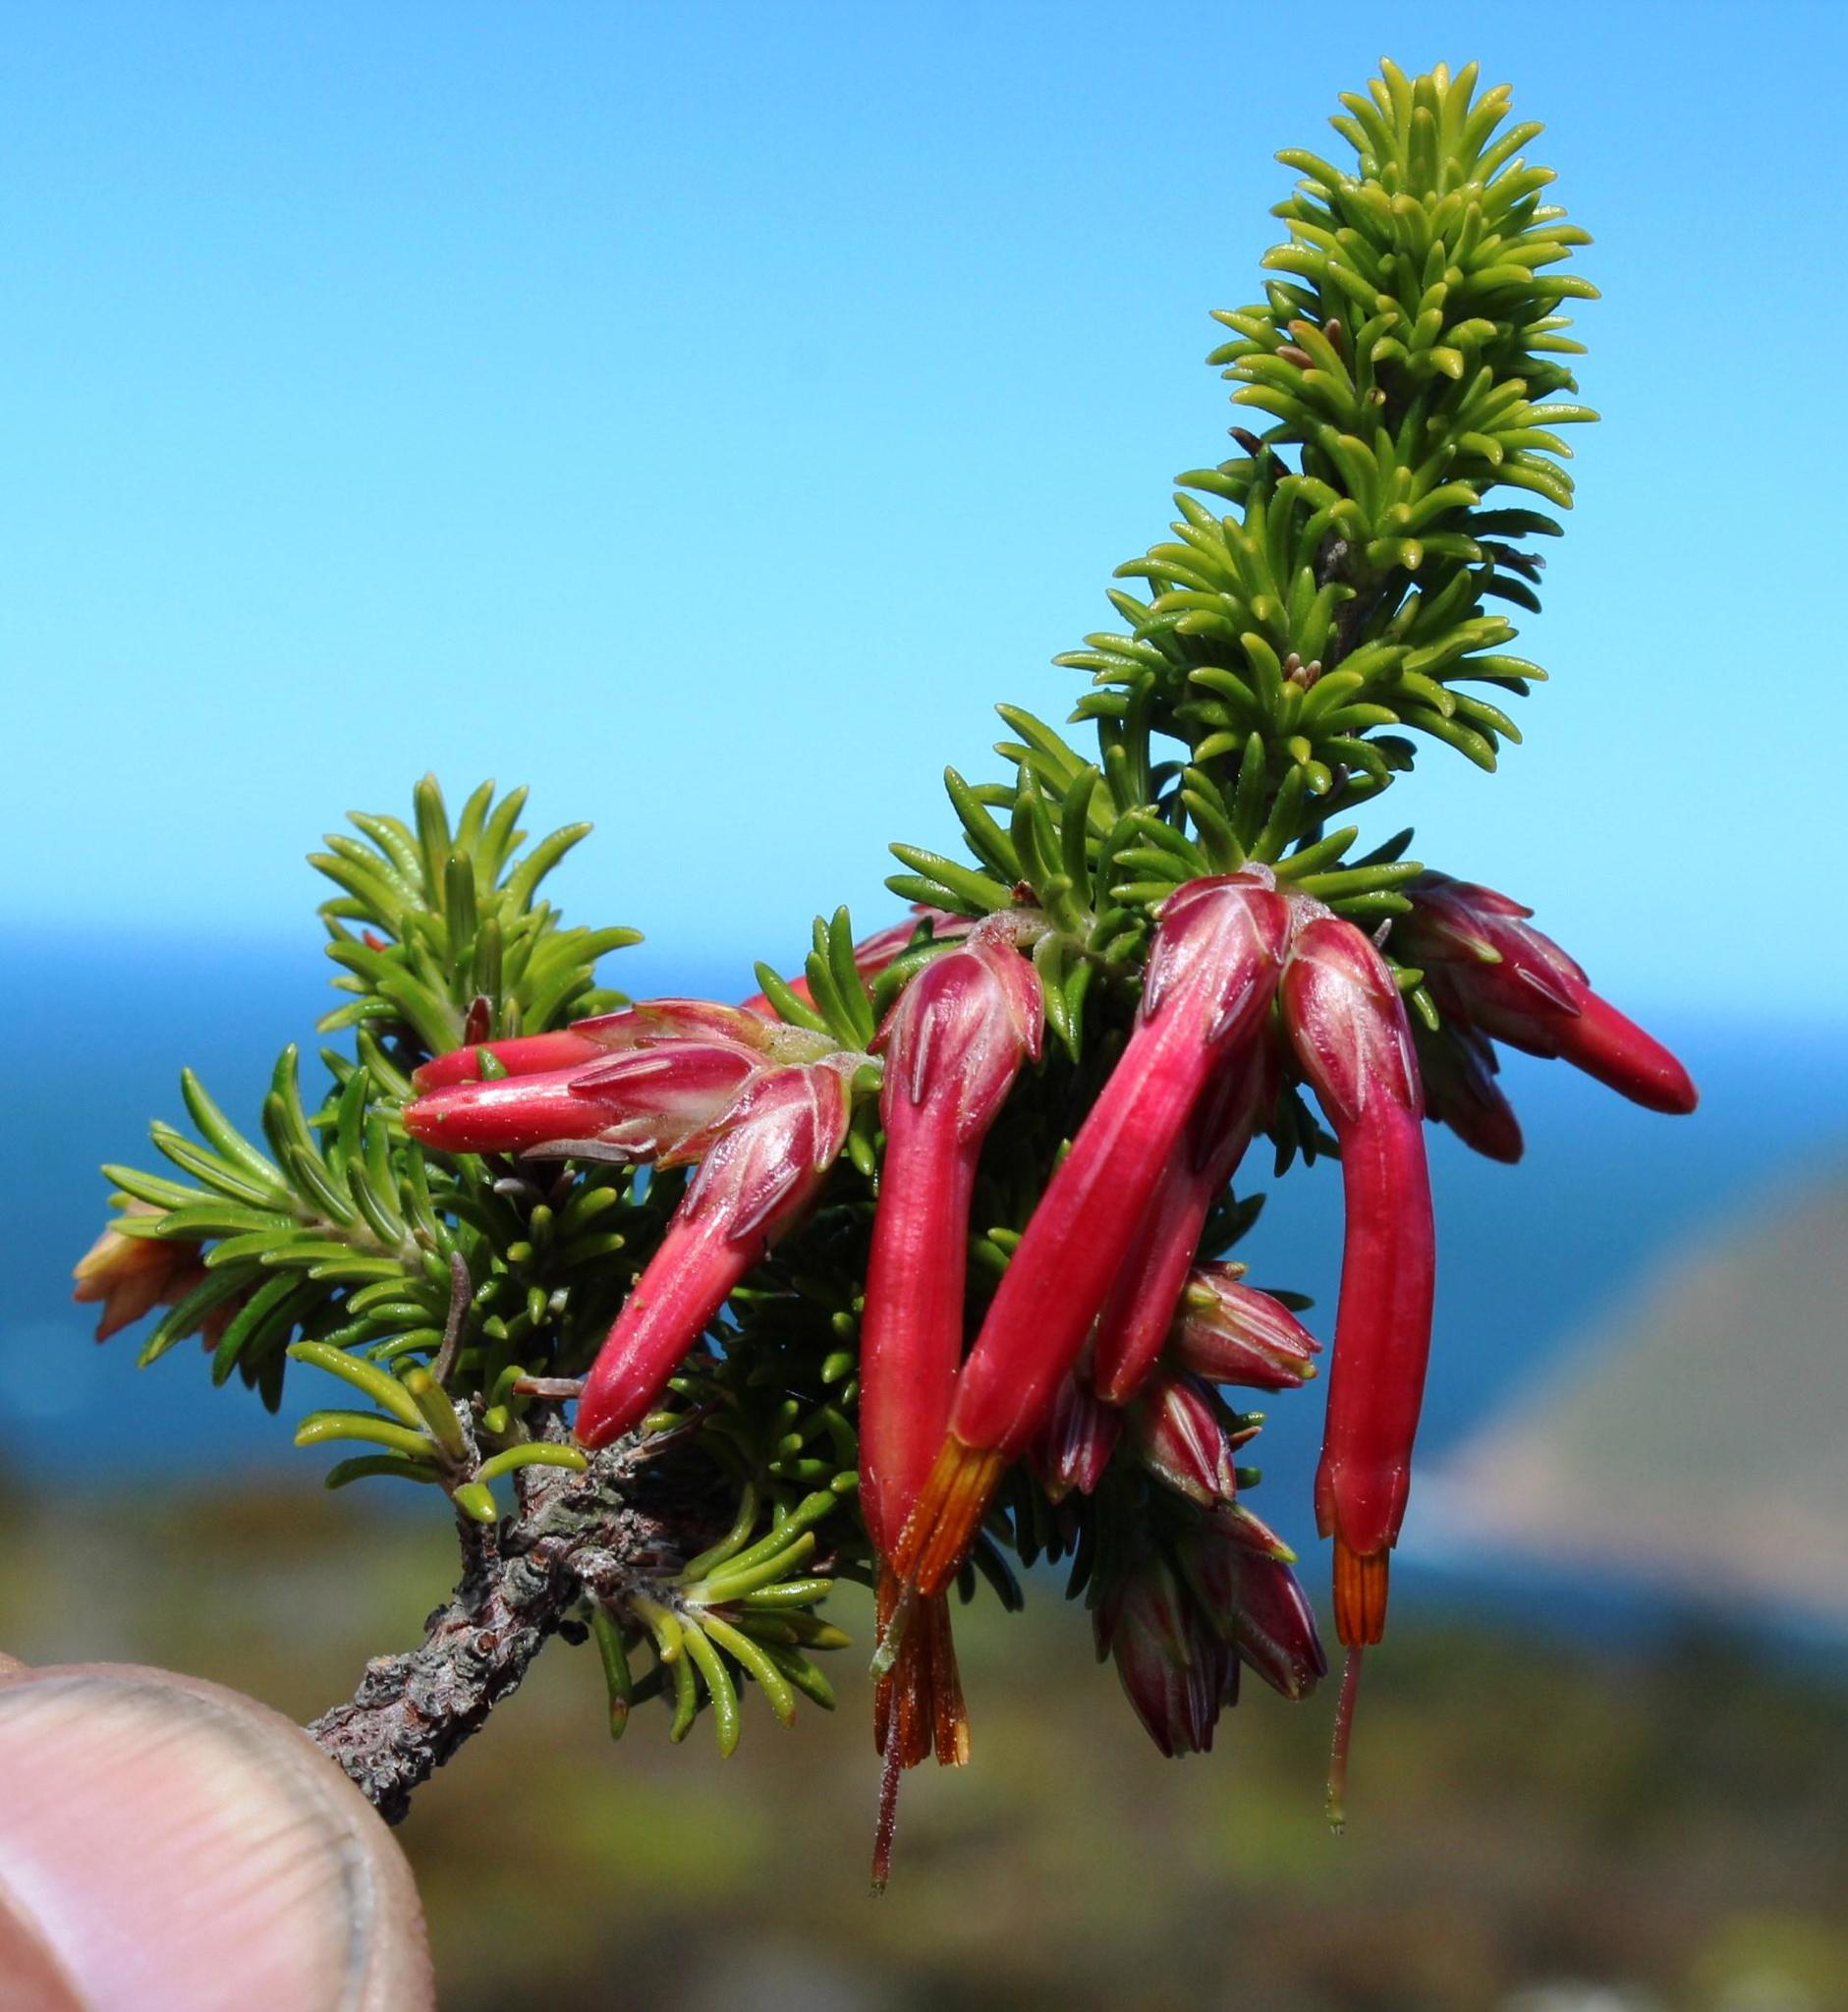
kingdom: Plantae
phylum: Tracheophyta
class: Magnoliopsida
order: Ericales
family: Ericaceae
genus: Erica
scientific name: Erica coccinea
